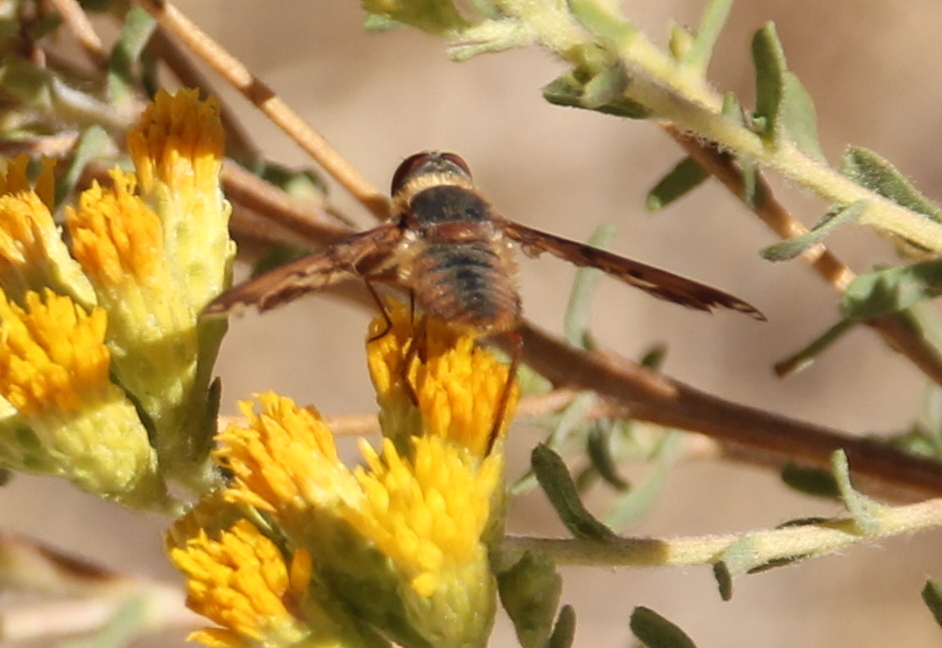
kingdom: Animalia
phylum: Arthropoda
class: Insecta
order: Diptera
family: Bombyliidae
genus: Poecilanthrax
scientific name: Poecilanthrax arethusa
